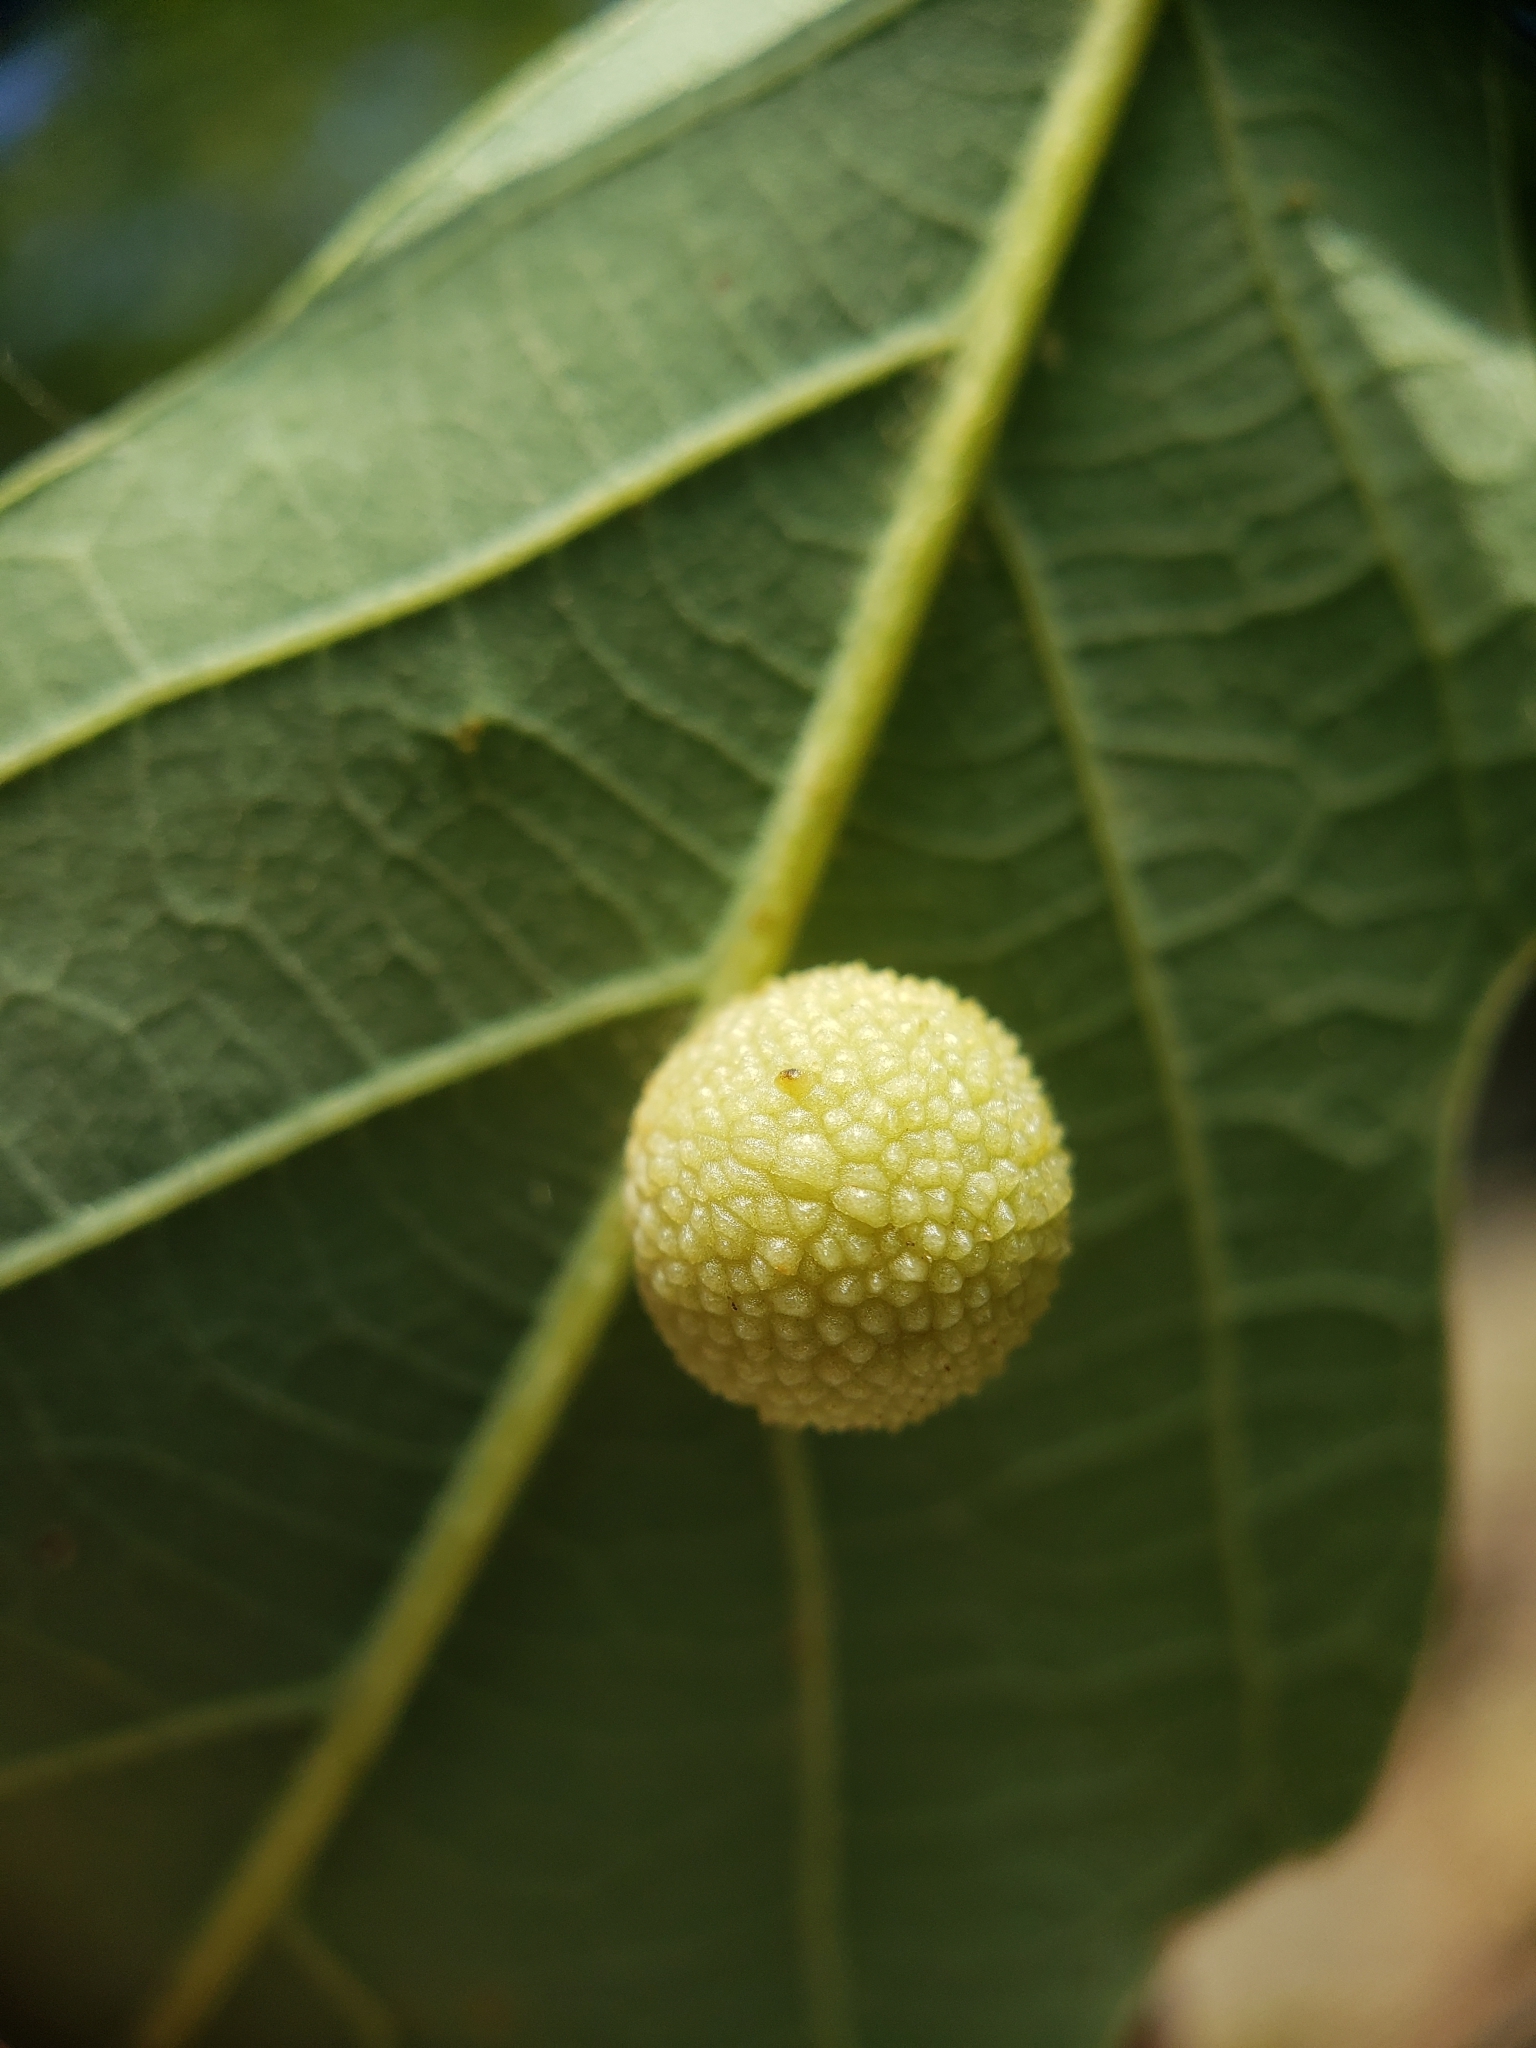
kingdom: Animalia
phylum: Arthropoda
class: Insecta
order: Hymenoptera
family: Cynipidae
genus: Acraspis
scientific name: Acraspis quercushirta
